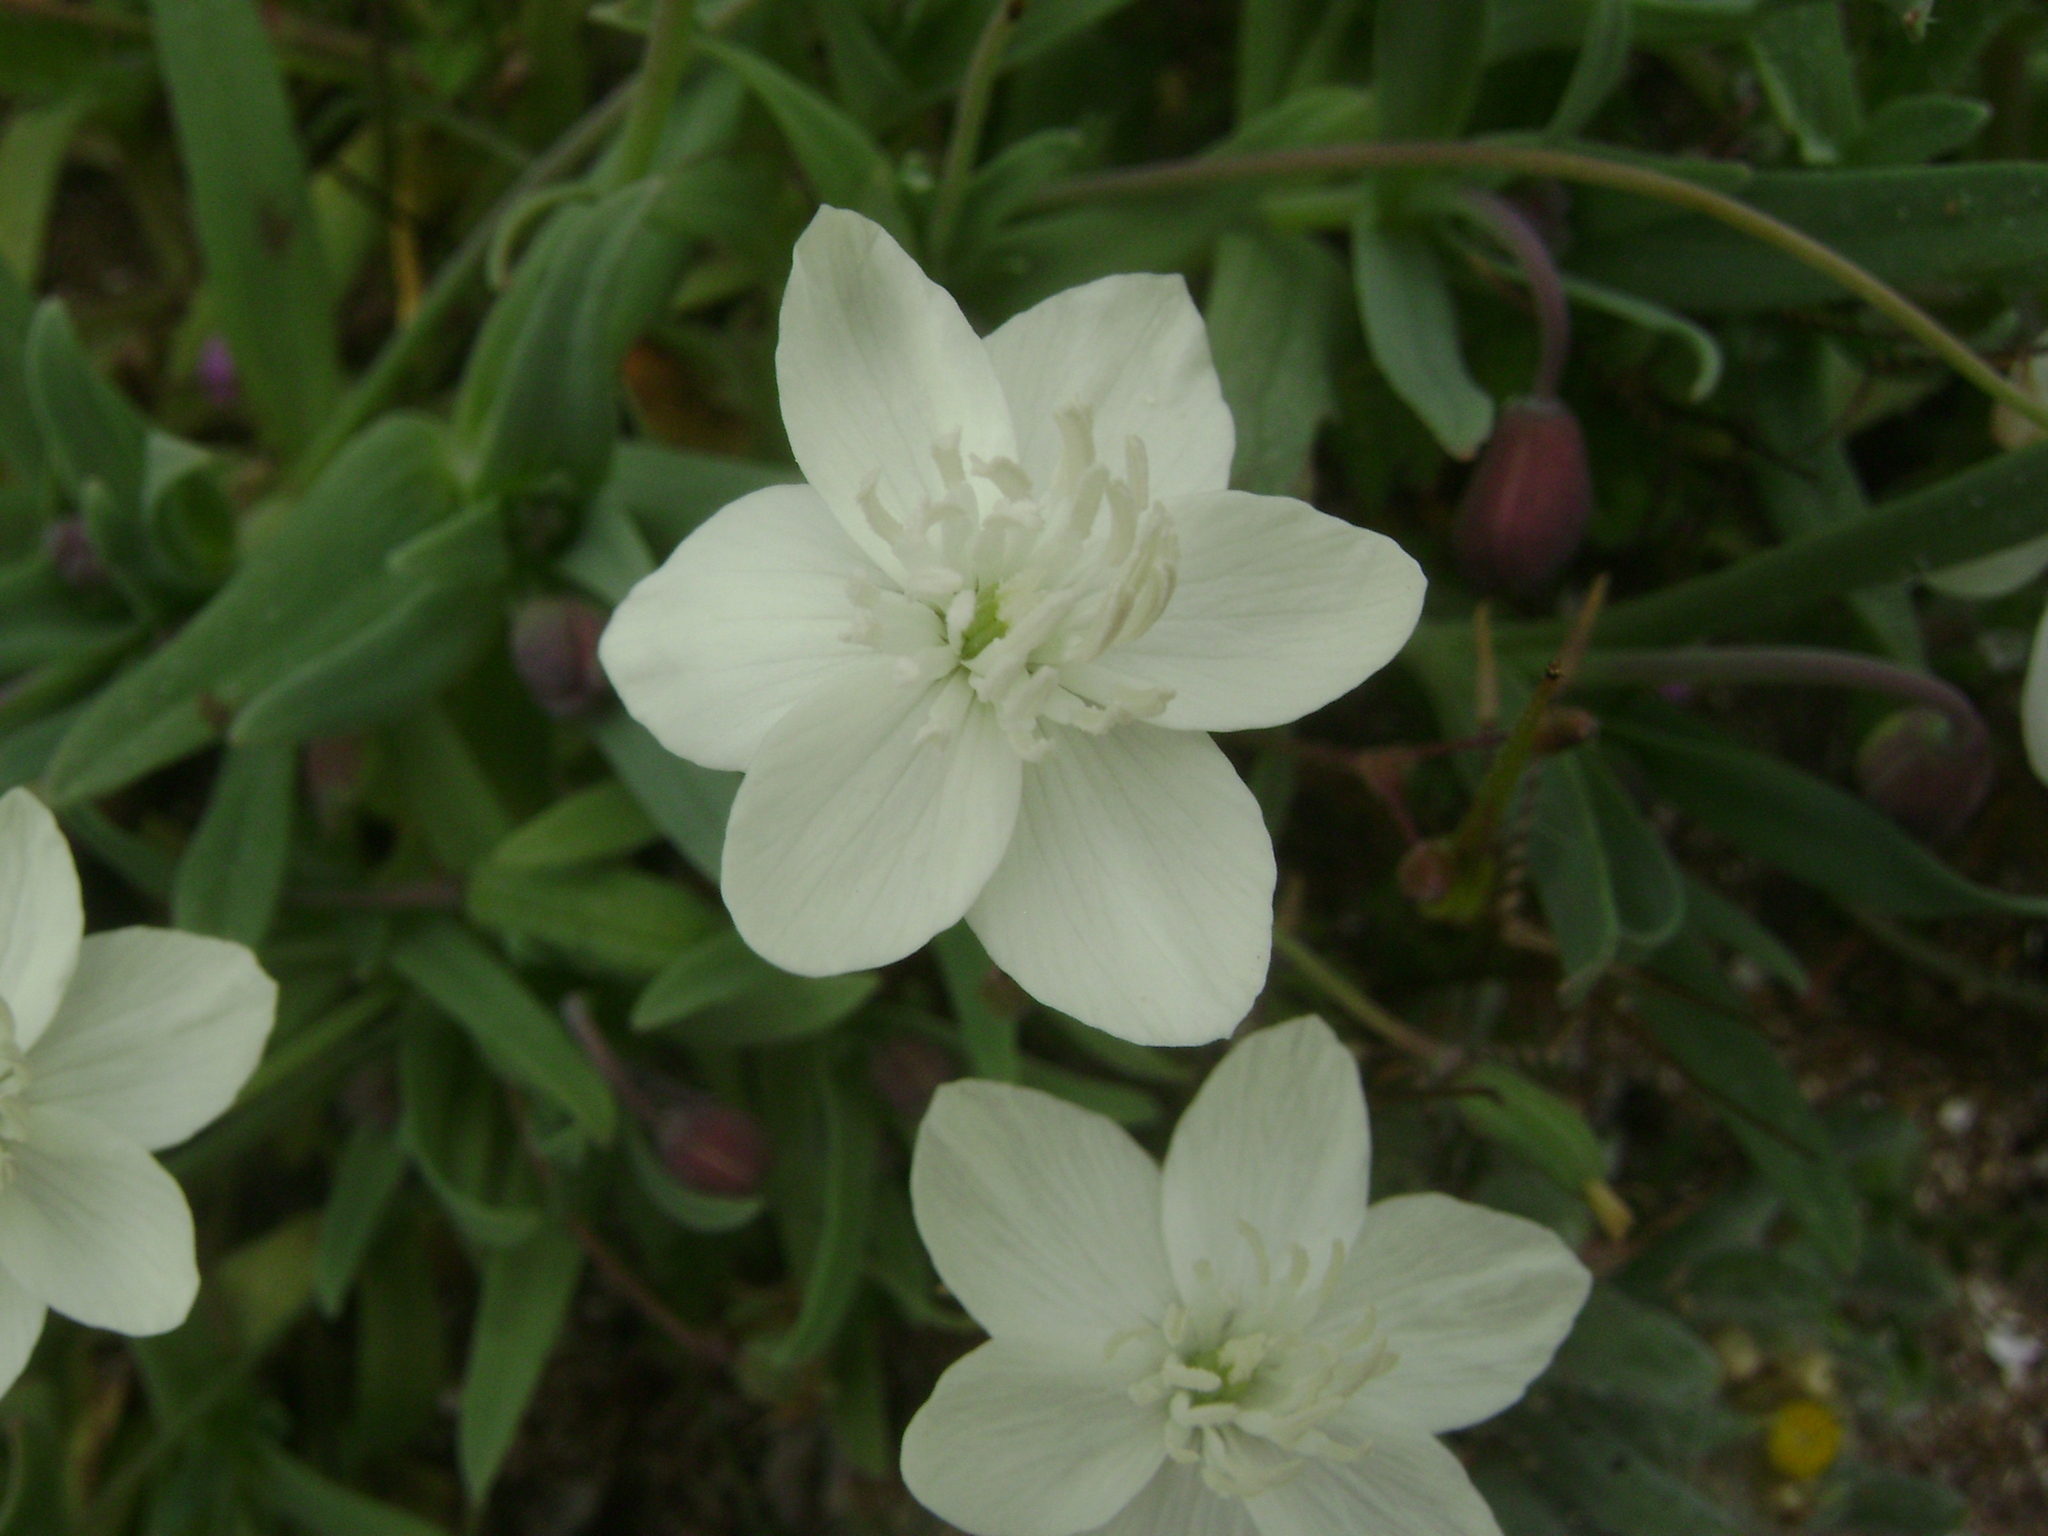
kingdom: Plantae
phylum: Tracheophyta
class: Magnoliopsida
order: Ranunculales
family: Papaveraceae
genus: Platystemon
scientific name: Platystemon californicus
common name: Cream-cups
